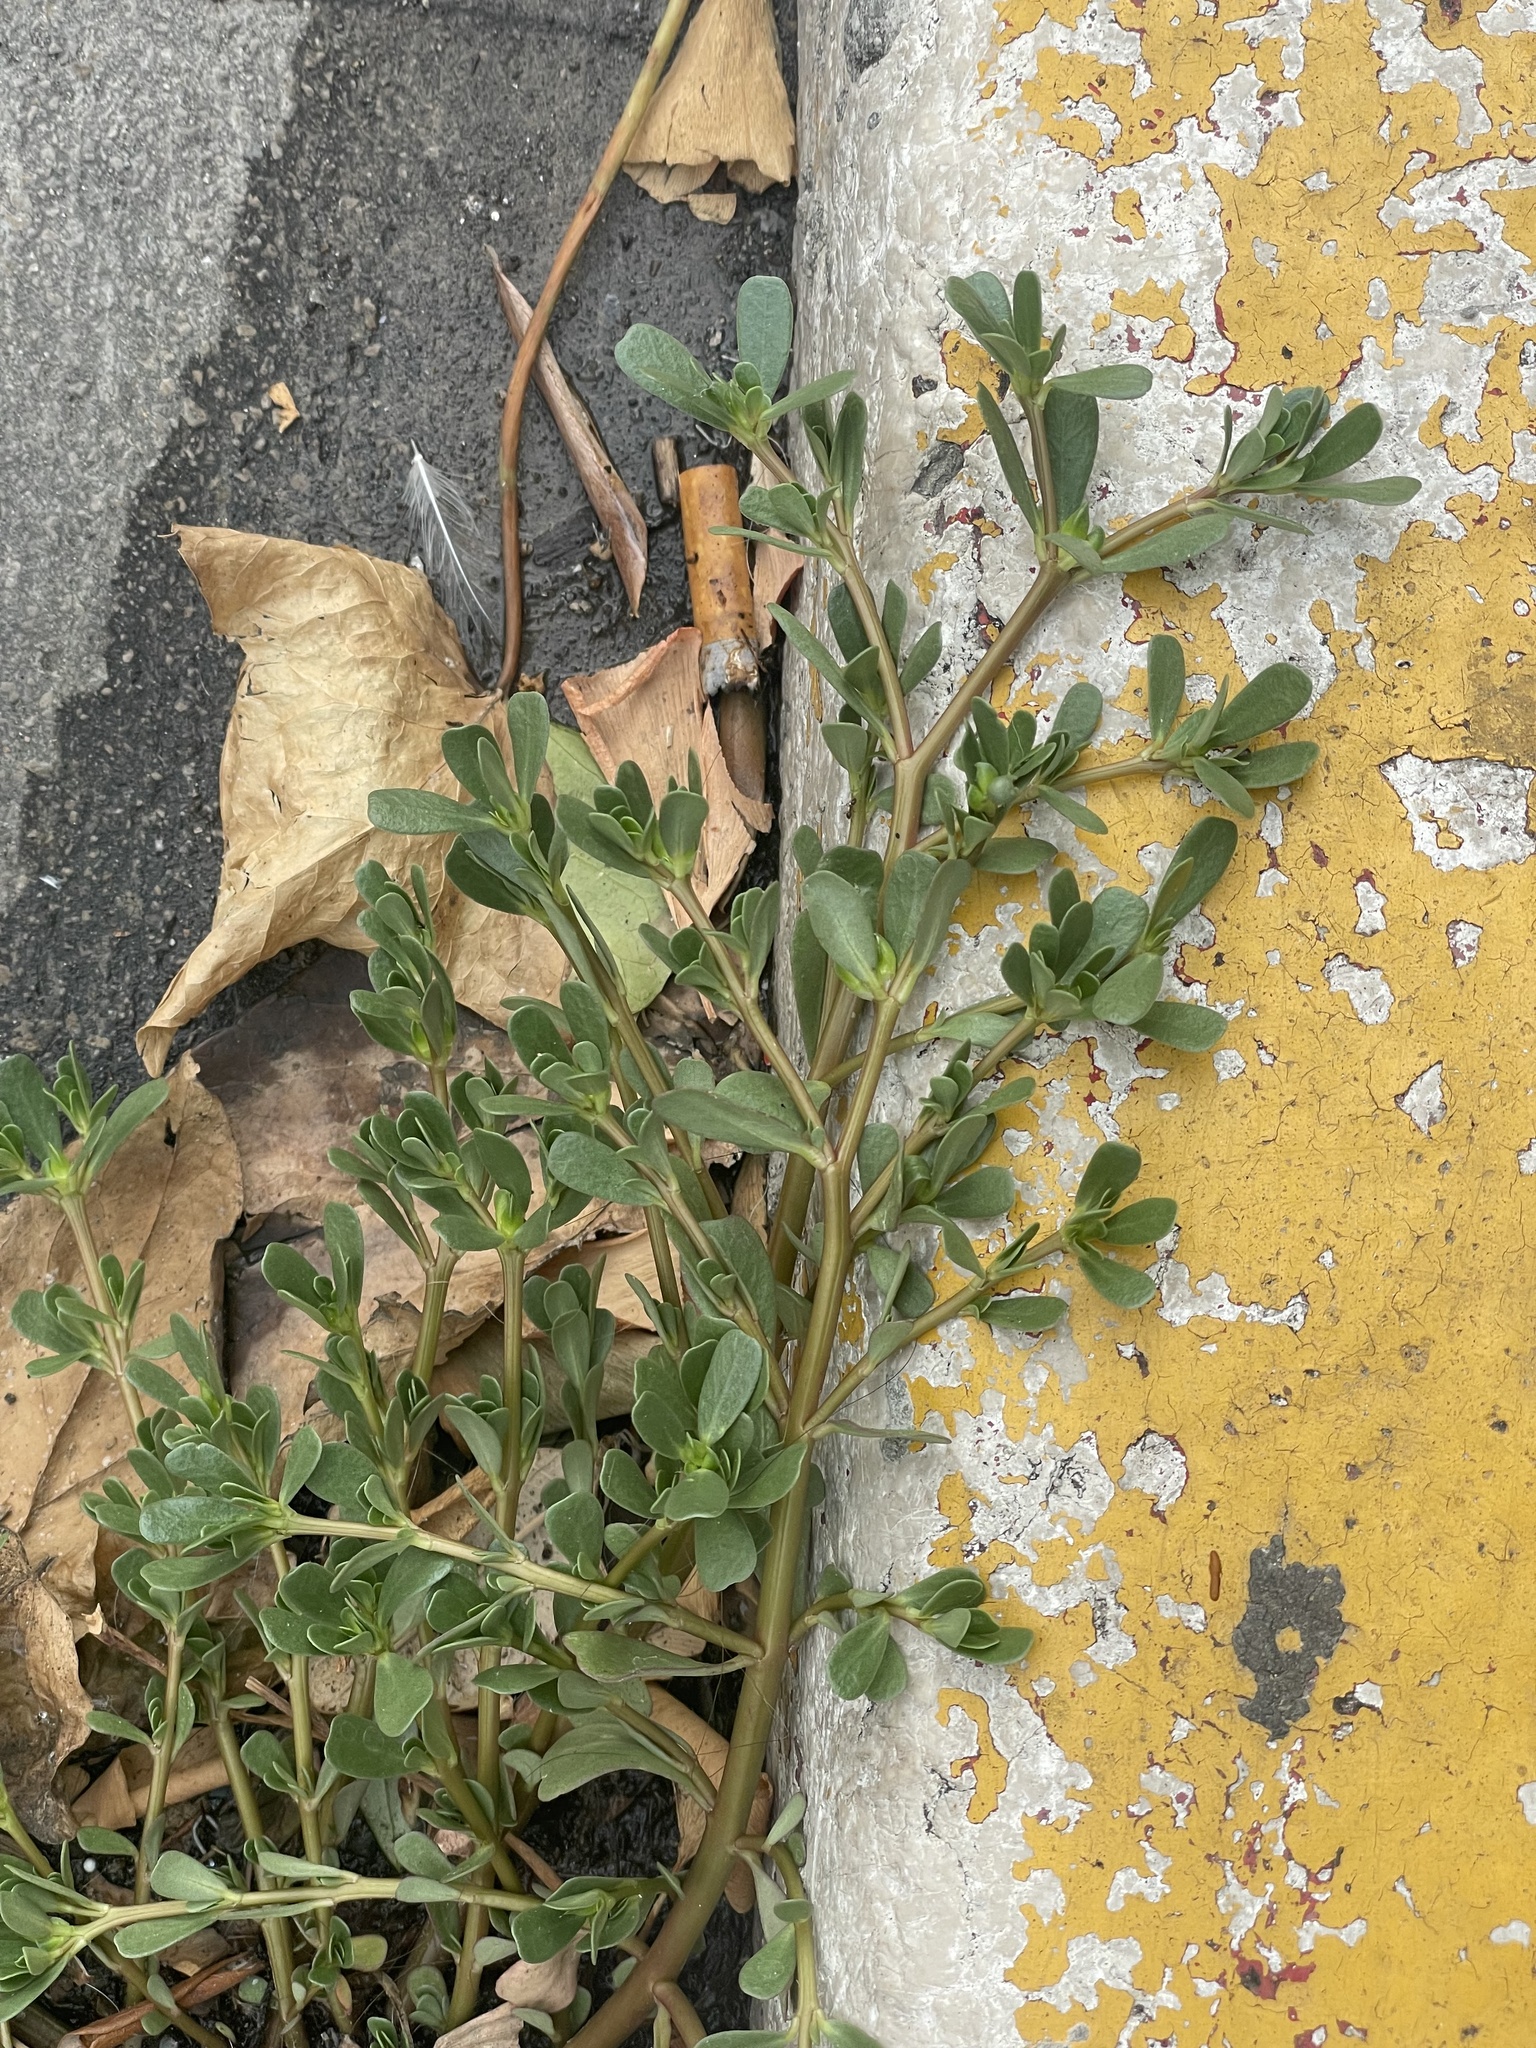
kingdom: Plantae
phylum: Tracheophyta
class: Magnoliopsida
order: Caryophyllales
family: Portulacaceae
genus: Portulaca
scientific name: Portulaca oleracea
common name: Common purslane
